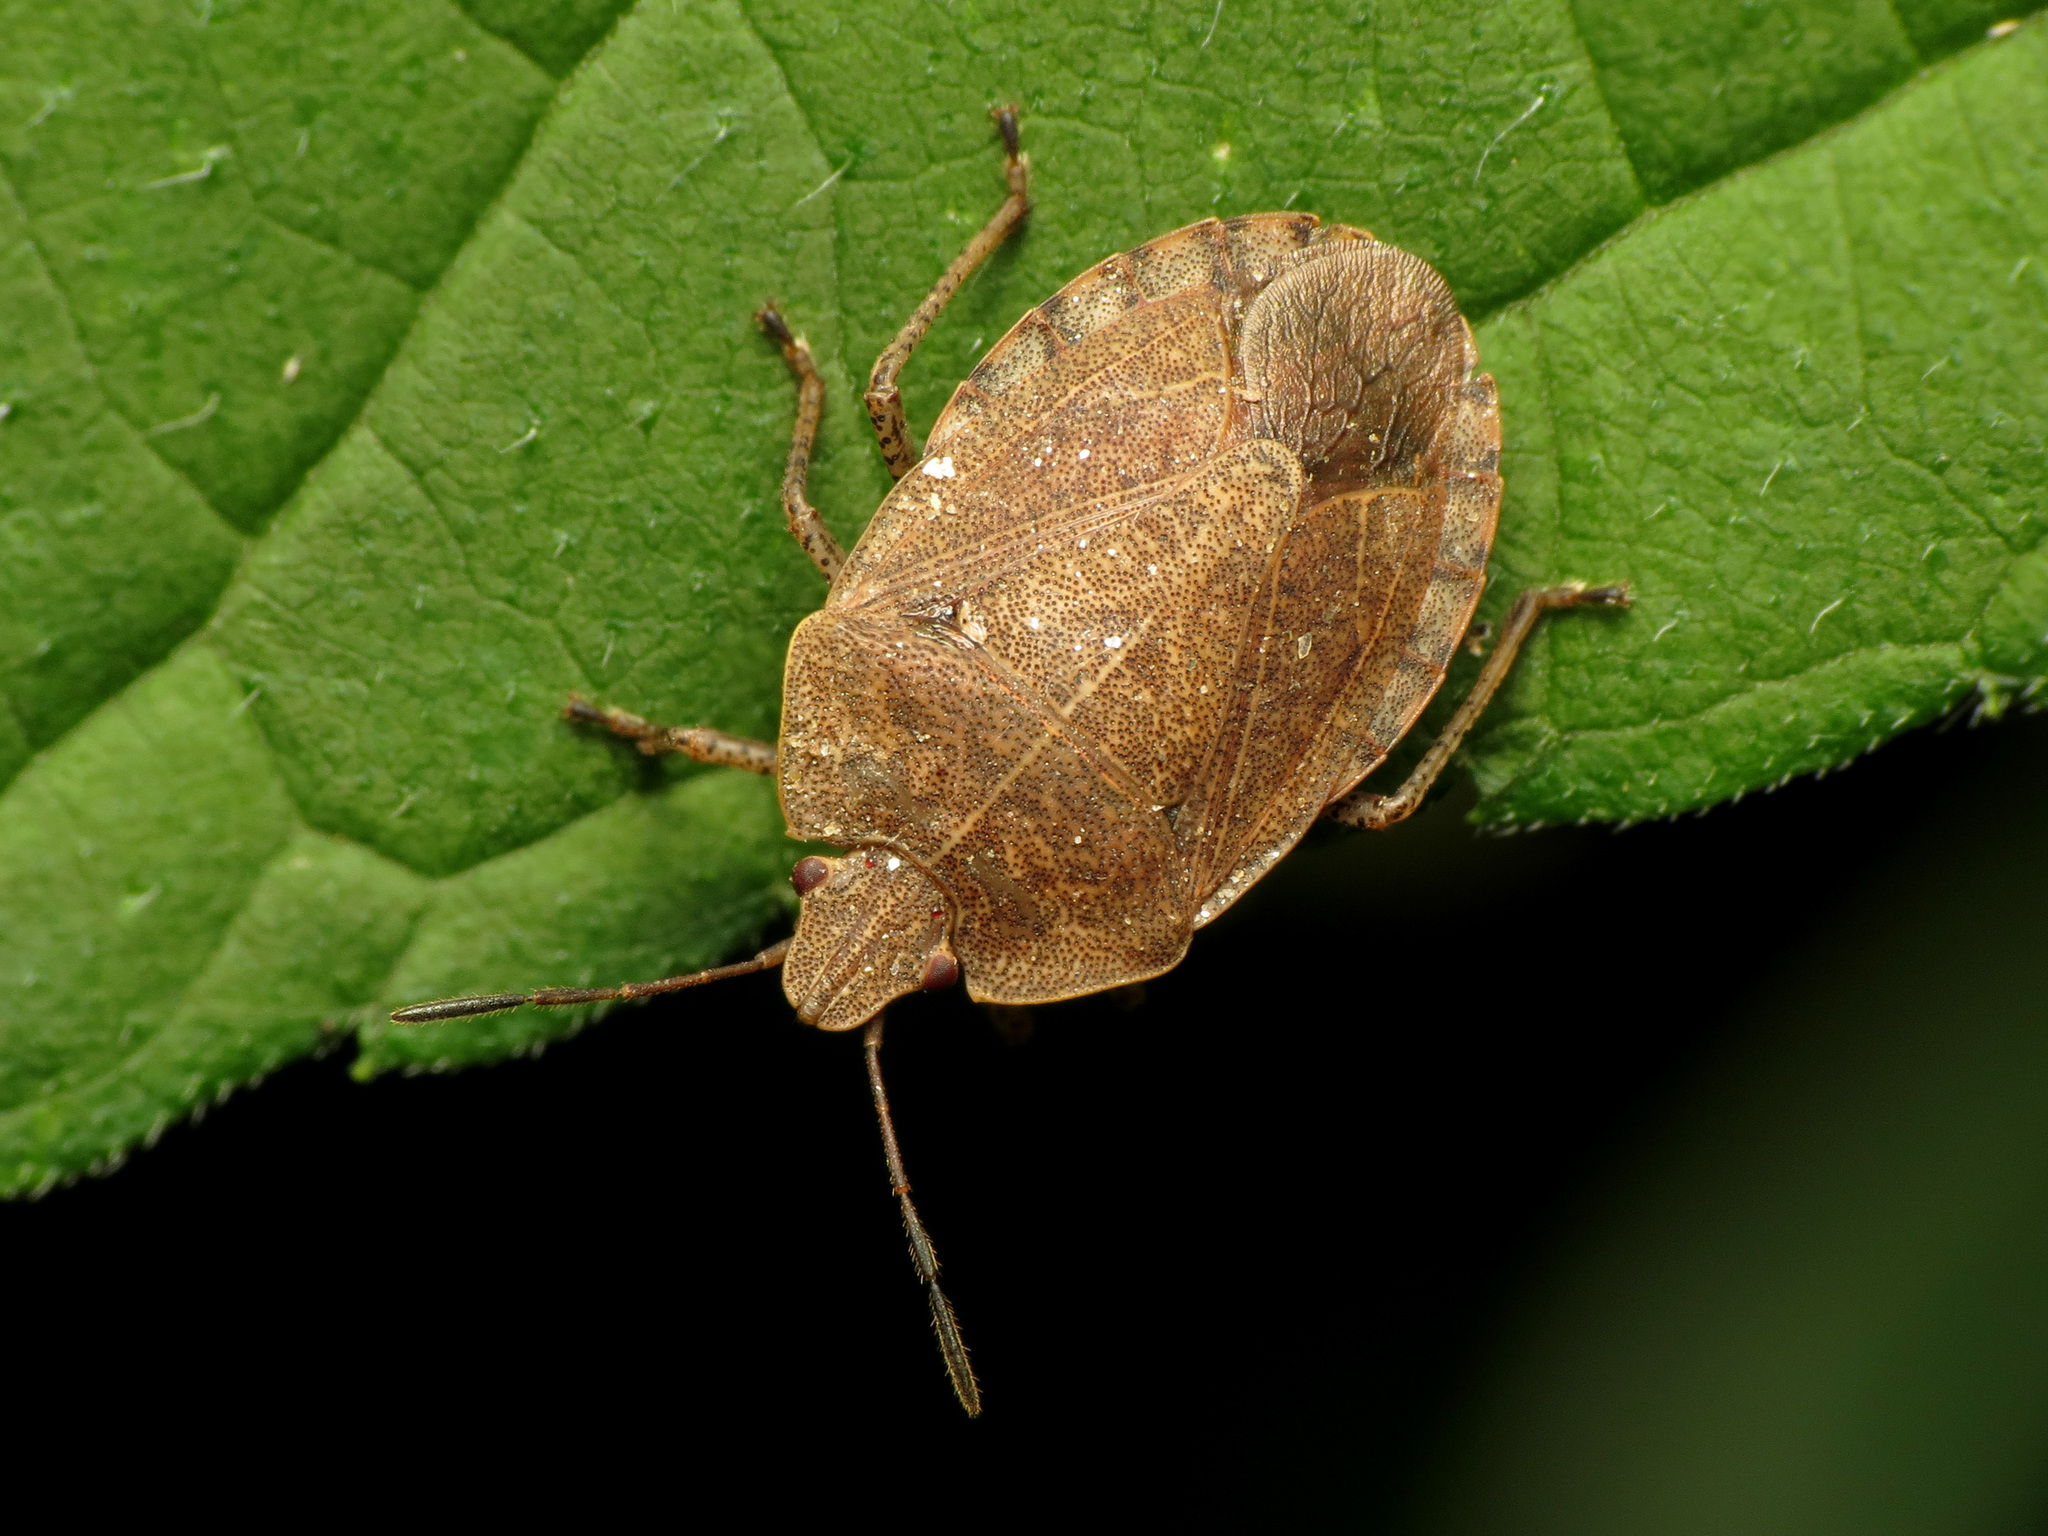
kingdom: Animalia
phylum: Arthropoda
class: Insecta
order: Hemiptera
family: Pentatomidae
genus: Menecles
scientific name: Menecles insertus
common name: Elf shoe stink bug
